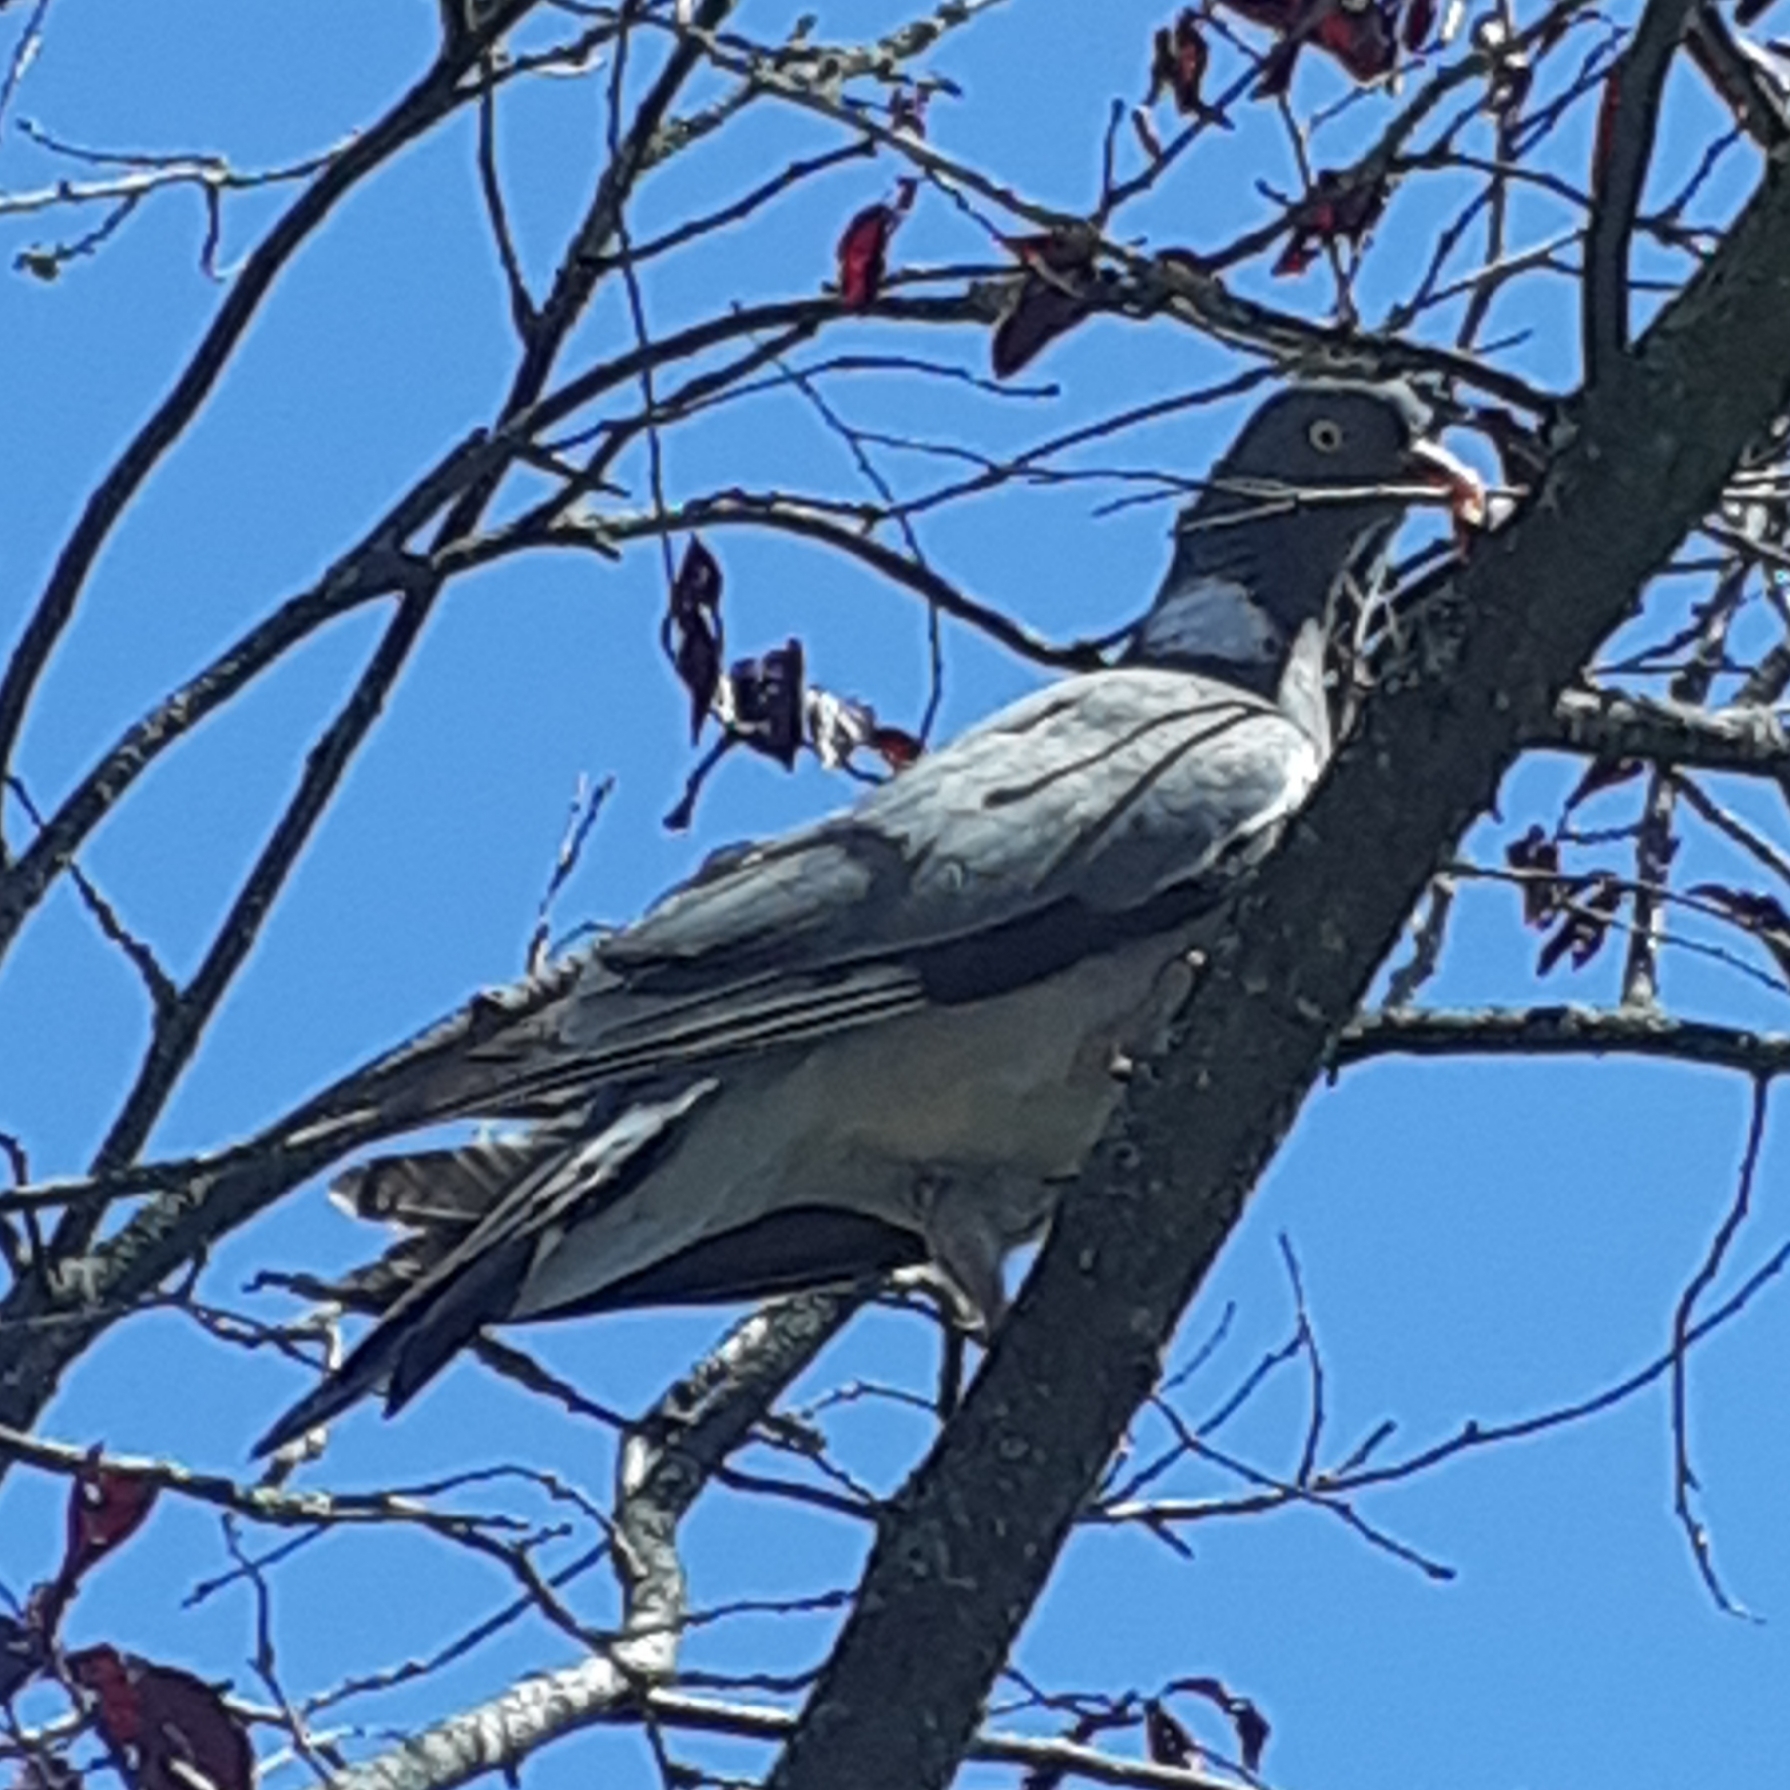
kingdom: Animalia
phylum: Chordata
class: Aves
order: Columbiformes
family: Columbidae
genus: Columba
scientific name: Columba palumbus
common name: Common wood pigeon
